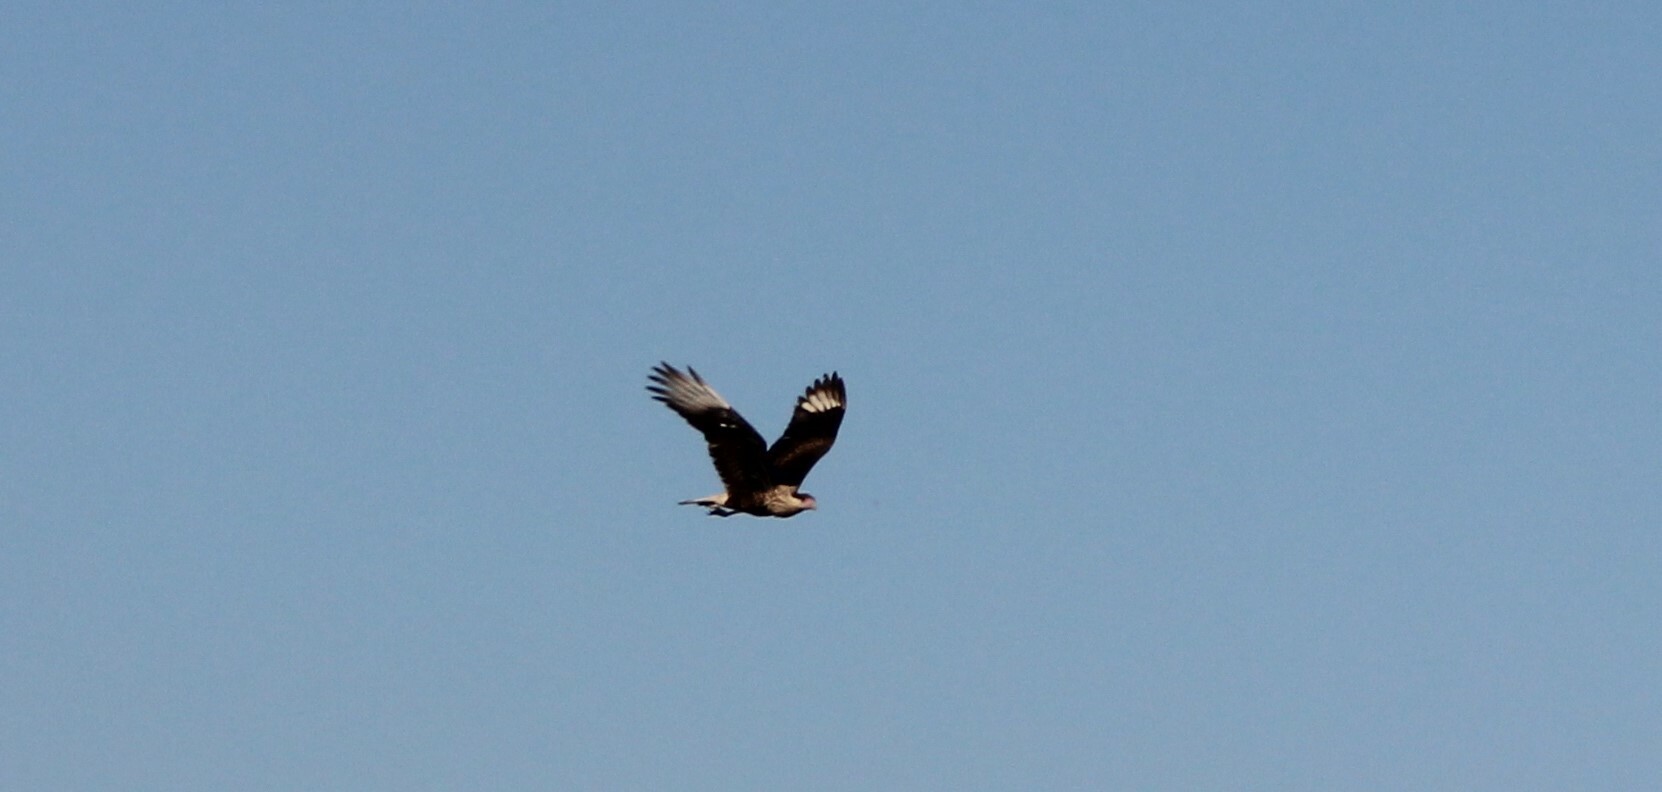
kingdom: Animalia
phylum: Chordata
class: Aves
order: Falconiformes
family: Falconidae
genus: Caracara
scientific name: Caracara plancus
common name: Southern caracara
